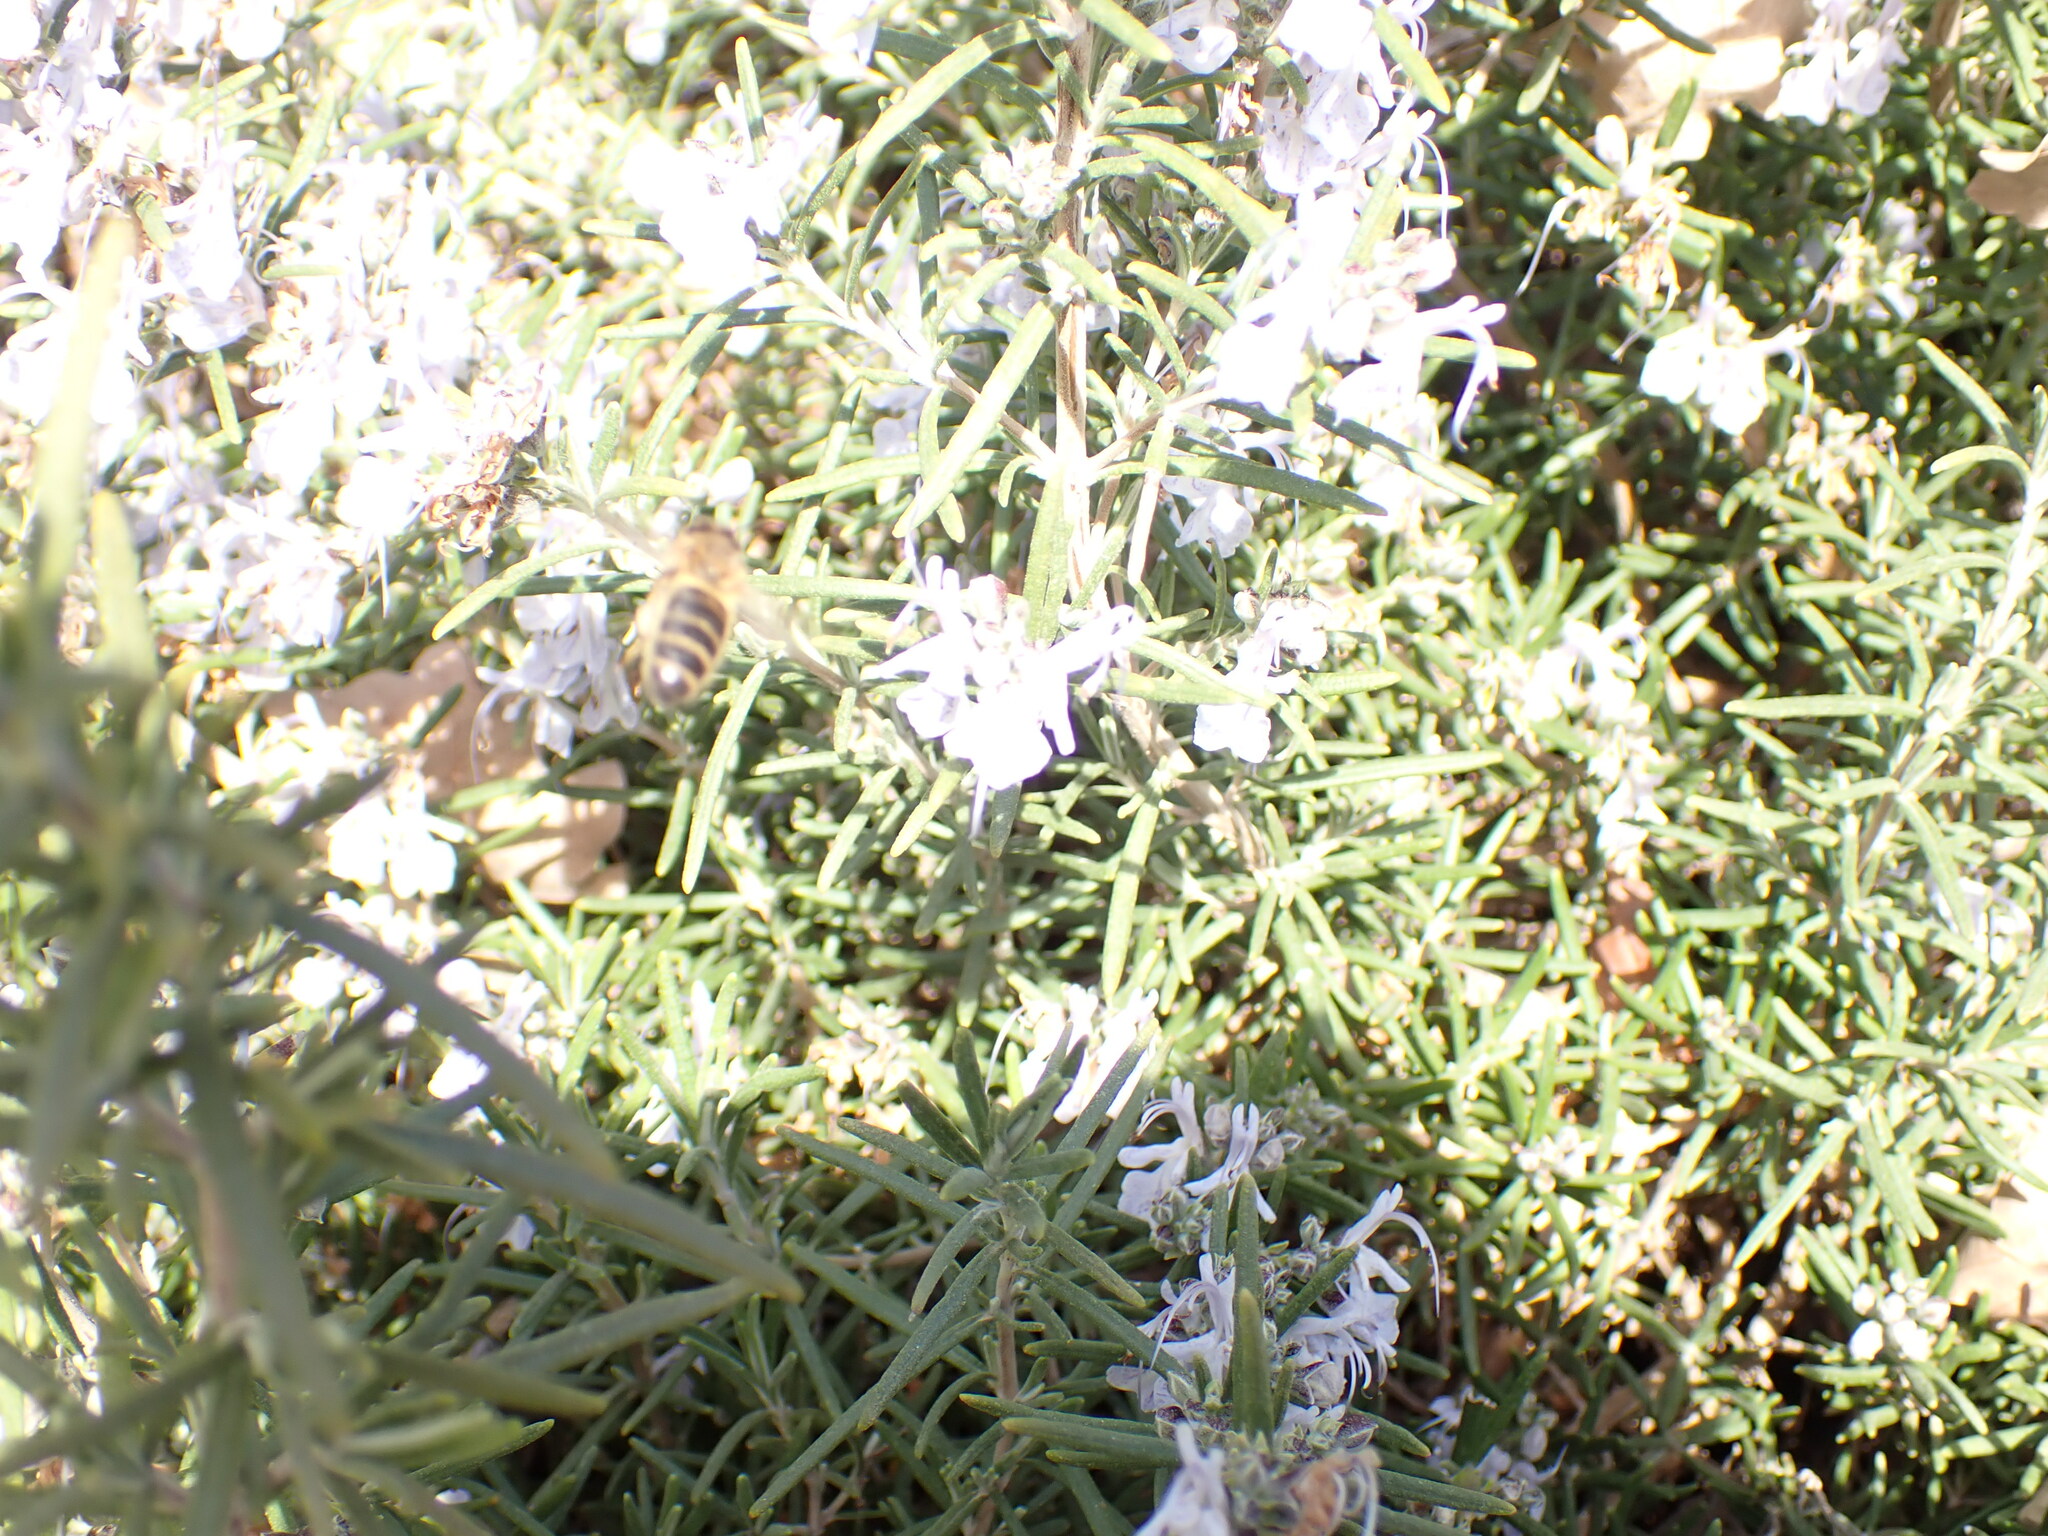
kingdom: Animalia
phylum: Arthropoda
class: Insecta
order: Hymenoptera
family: Apidae
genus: Apis
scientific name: Apis mellifera
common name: Honey bee
